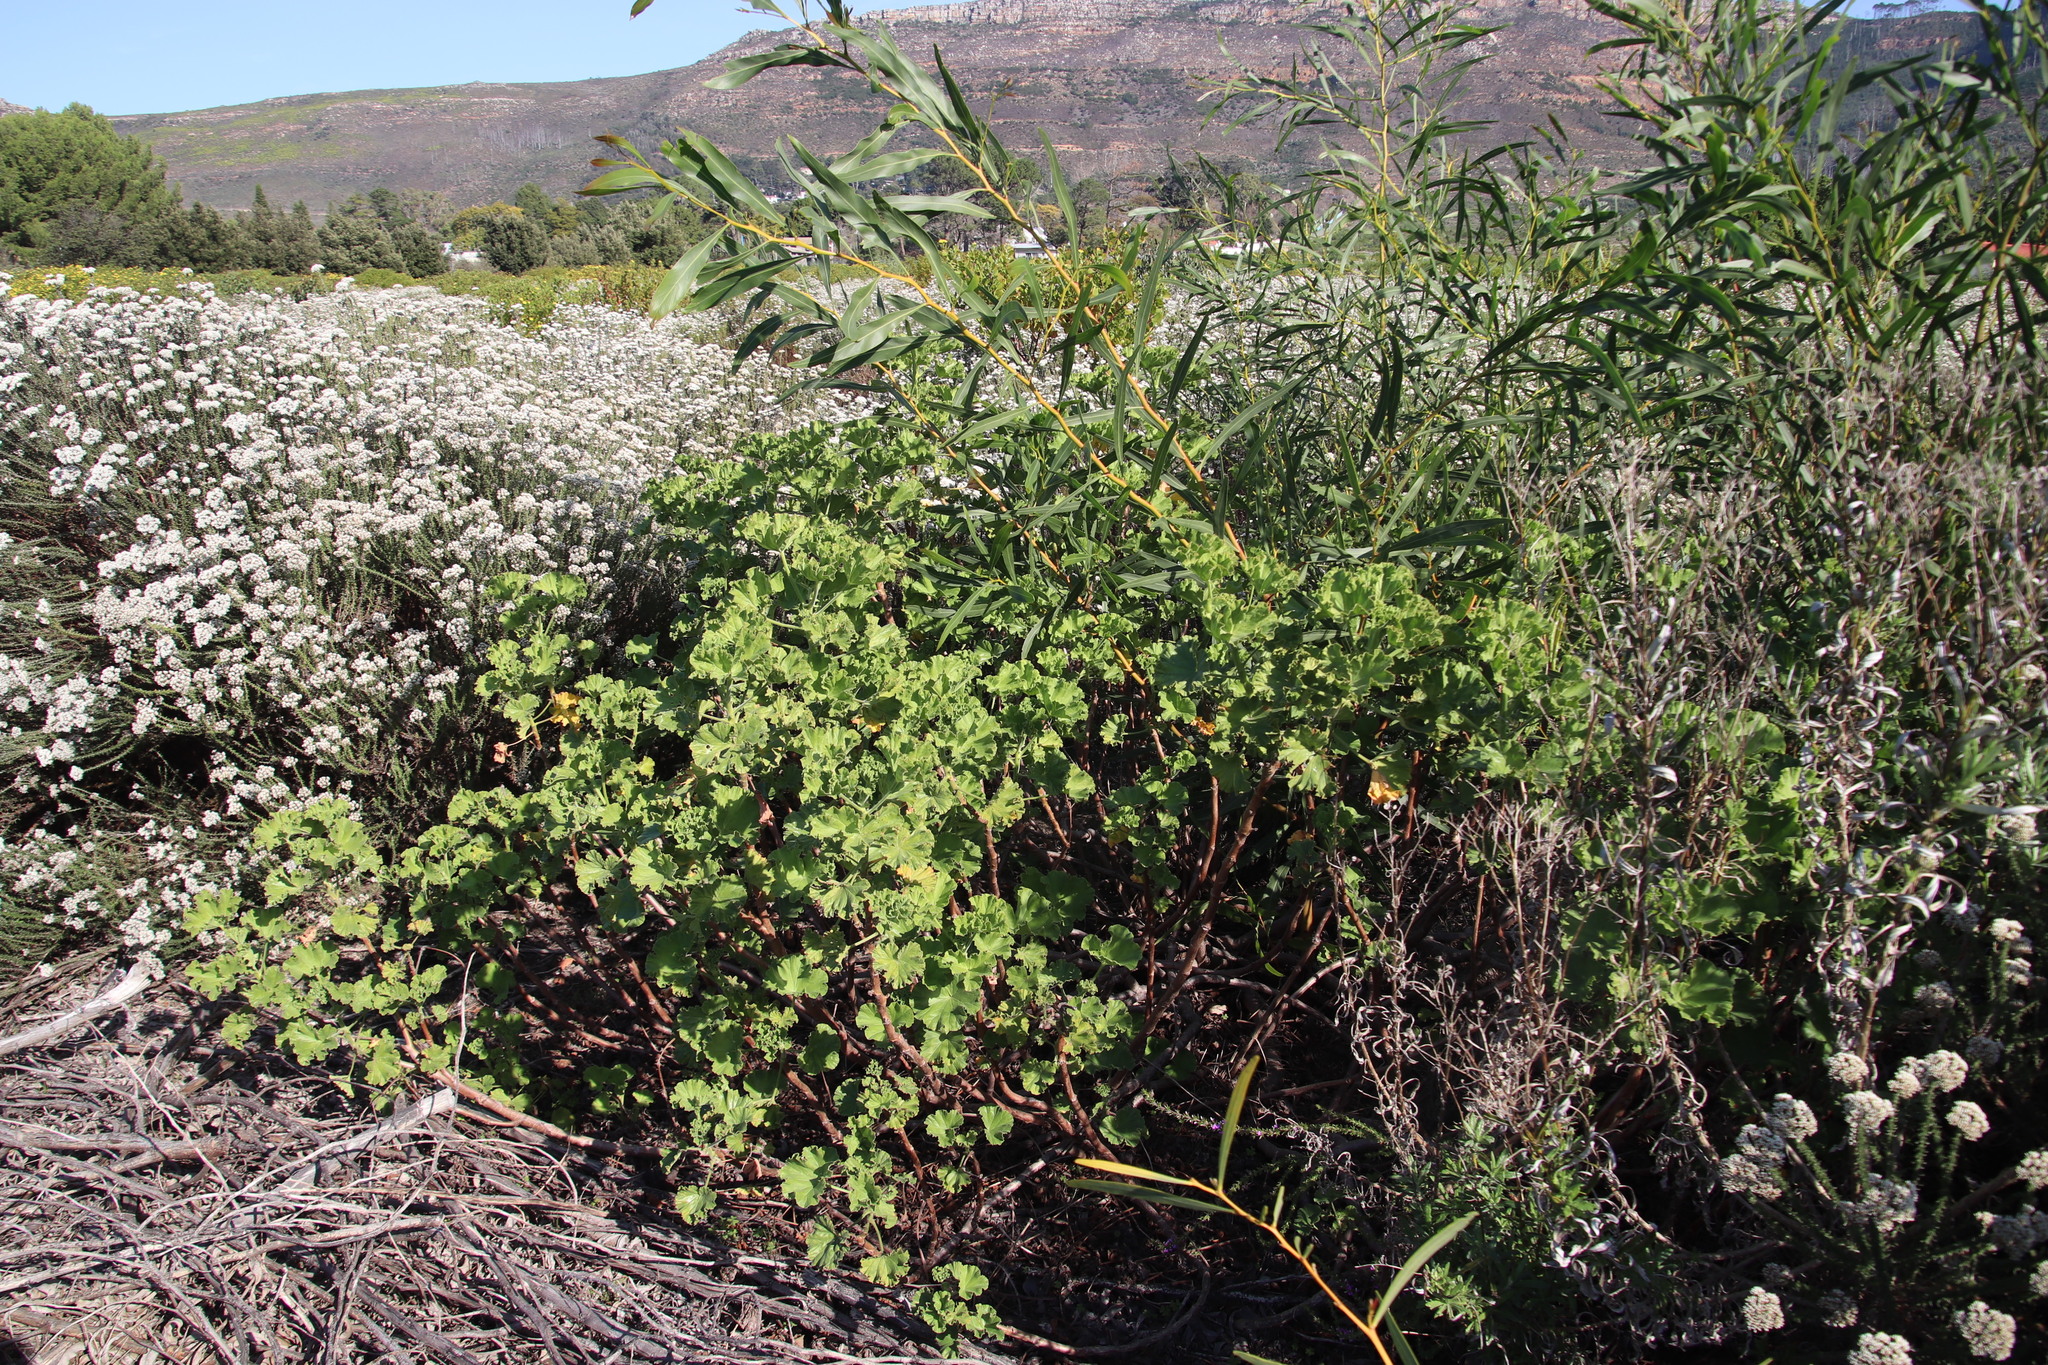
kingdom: Plantae
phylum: Tracheophyta
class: Magnoliopsida
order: Geraniales
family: Geraniaceae
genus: Pelargonium
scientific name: Pelargonium cucullatum
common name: Tree pelargonium
